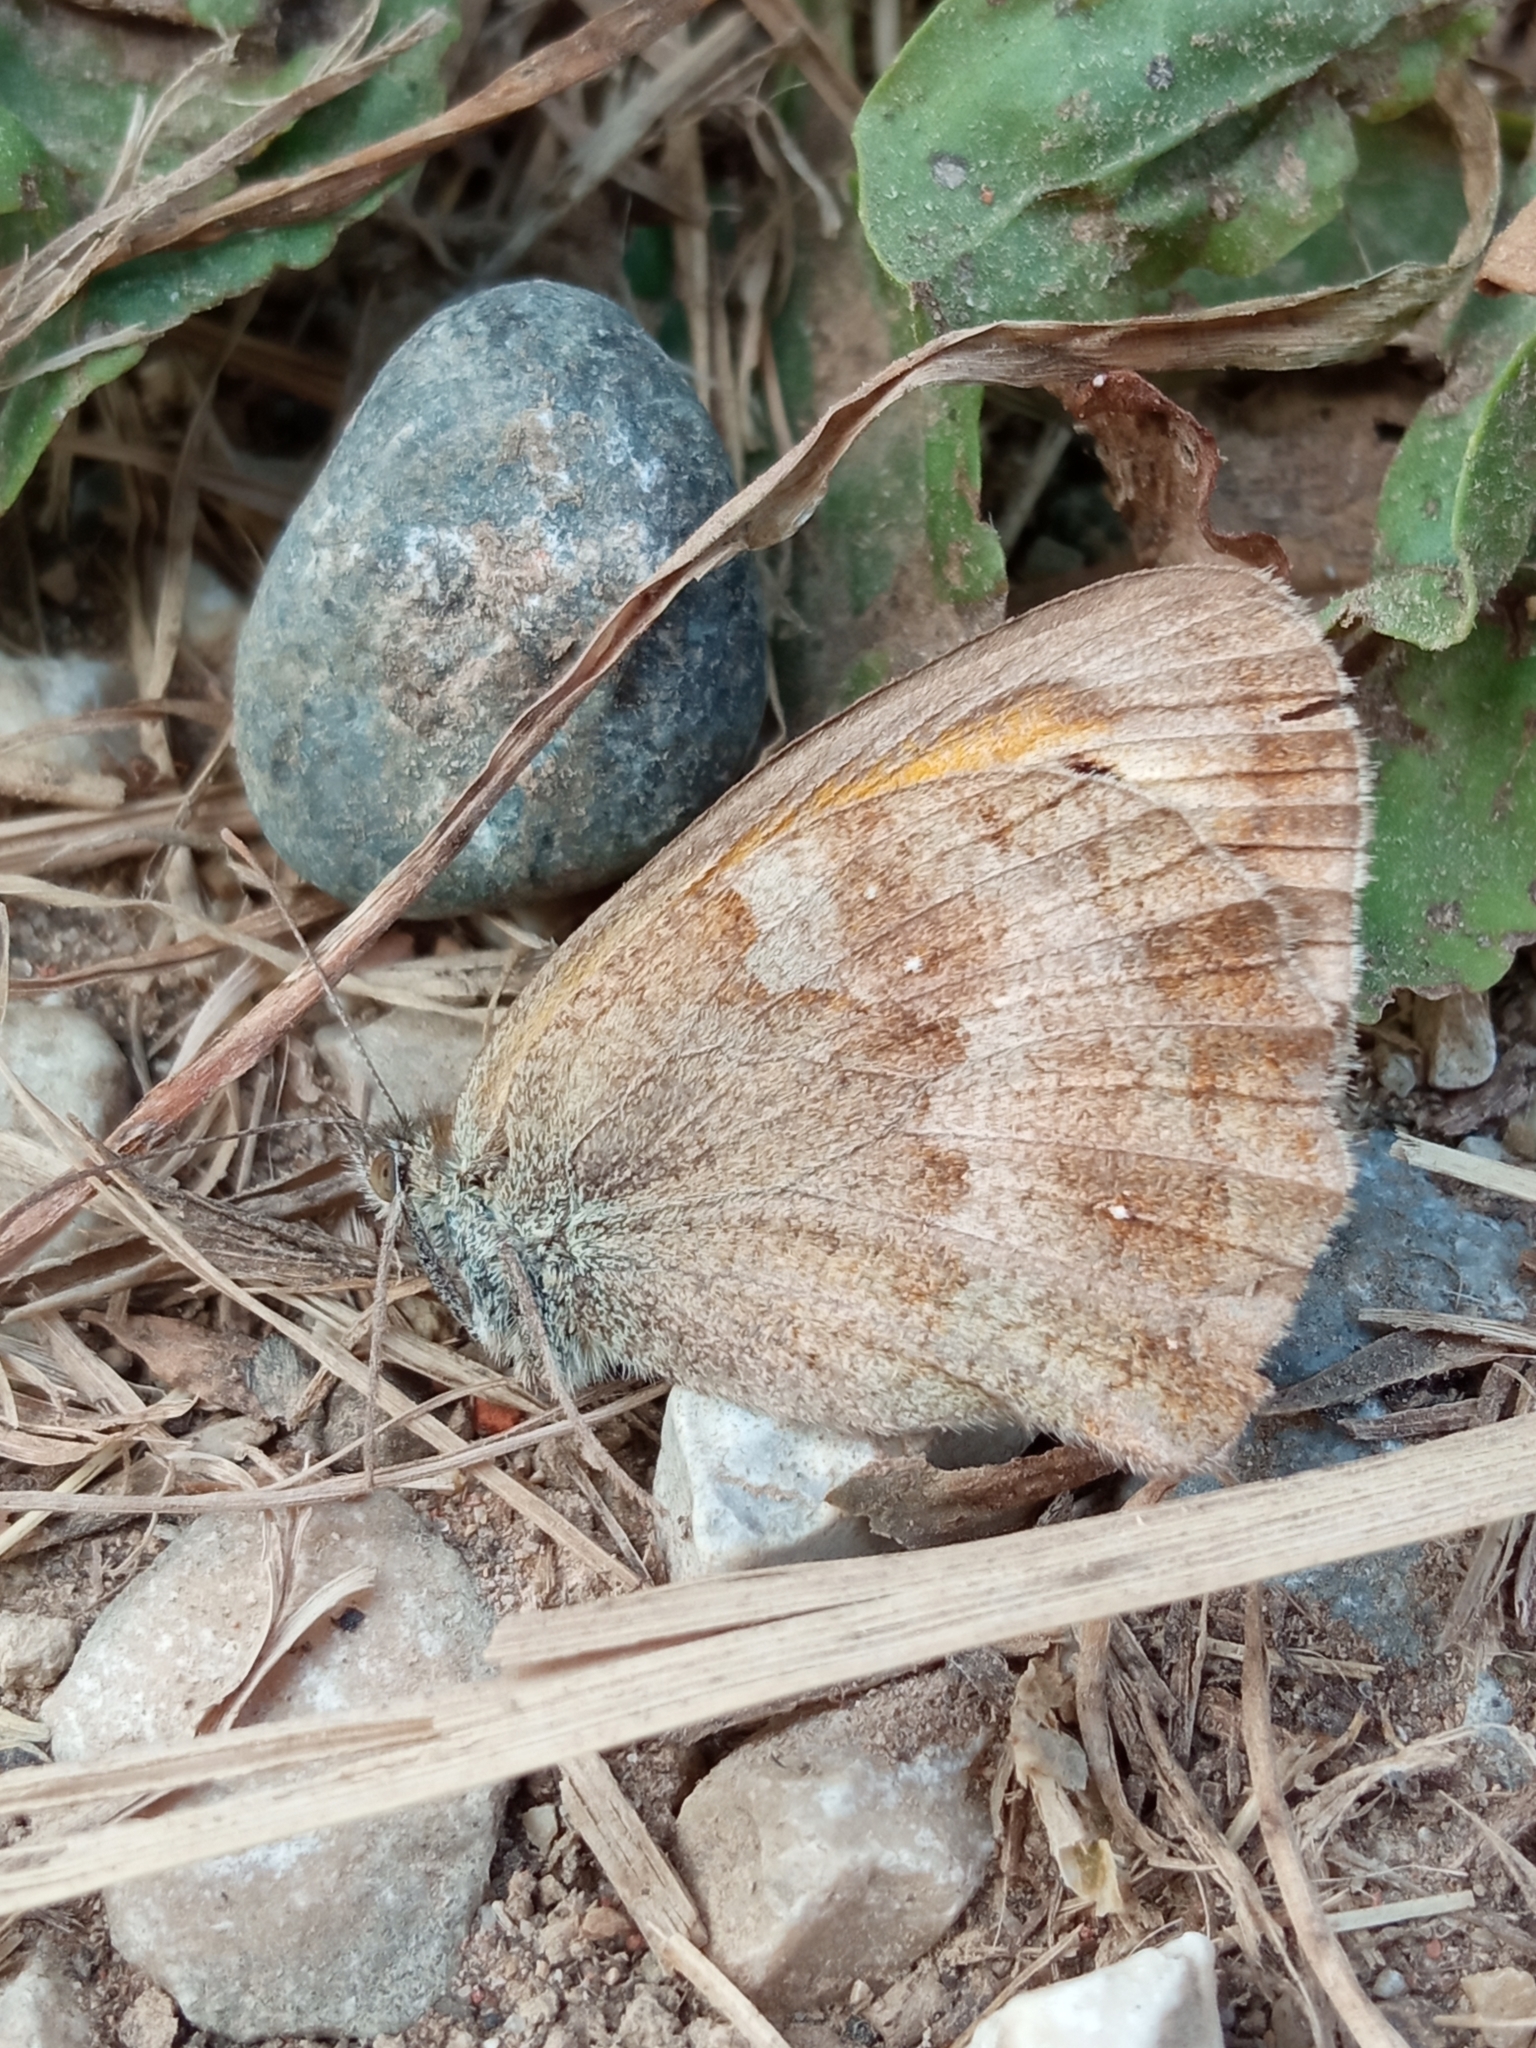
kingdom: Animalia
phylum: Arthropoda
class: Insecta
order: Lepidoptera
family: Nymphalidae
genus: Pyronia
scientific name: Pyronia tithonus
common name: Gatekeeper
